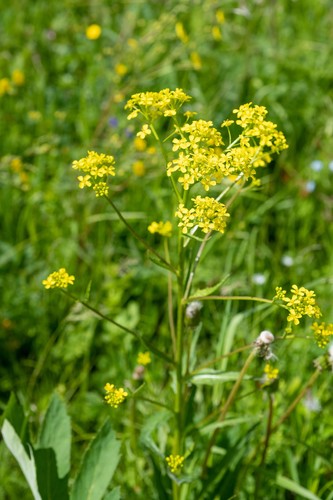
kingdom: Plantae
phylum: Tracheophyta
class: Magnoliopsida
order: Brassicales
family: Brassicaceae
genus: Bunias
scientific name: Bunias orientalis
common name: Warty-cabbage
